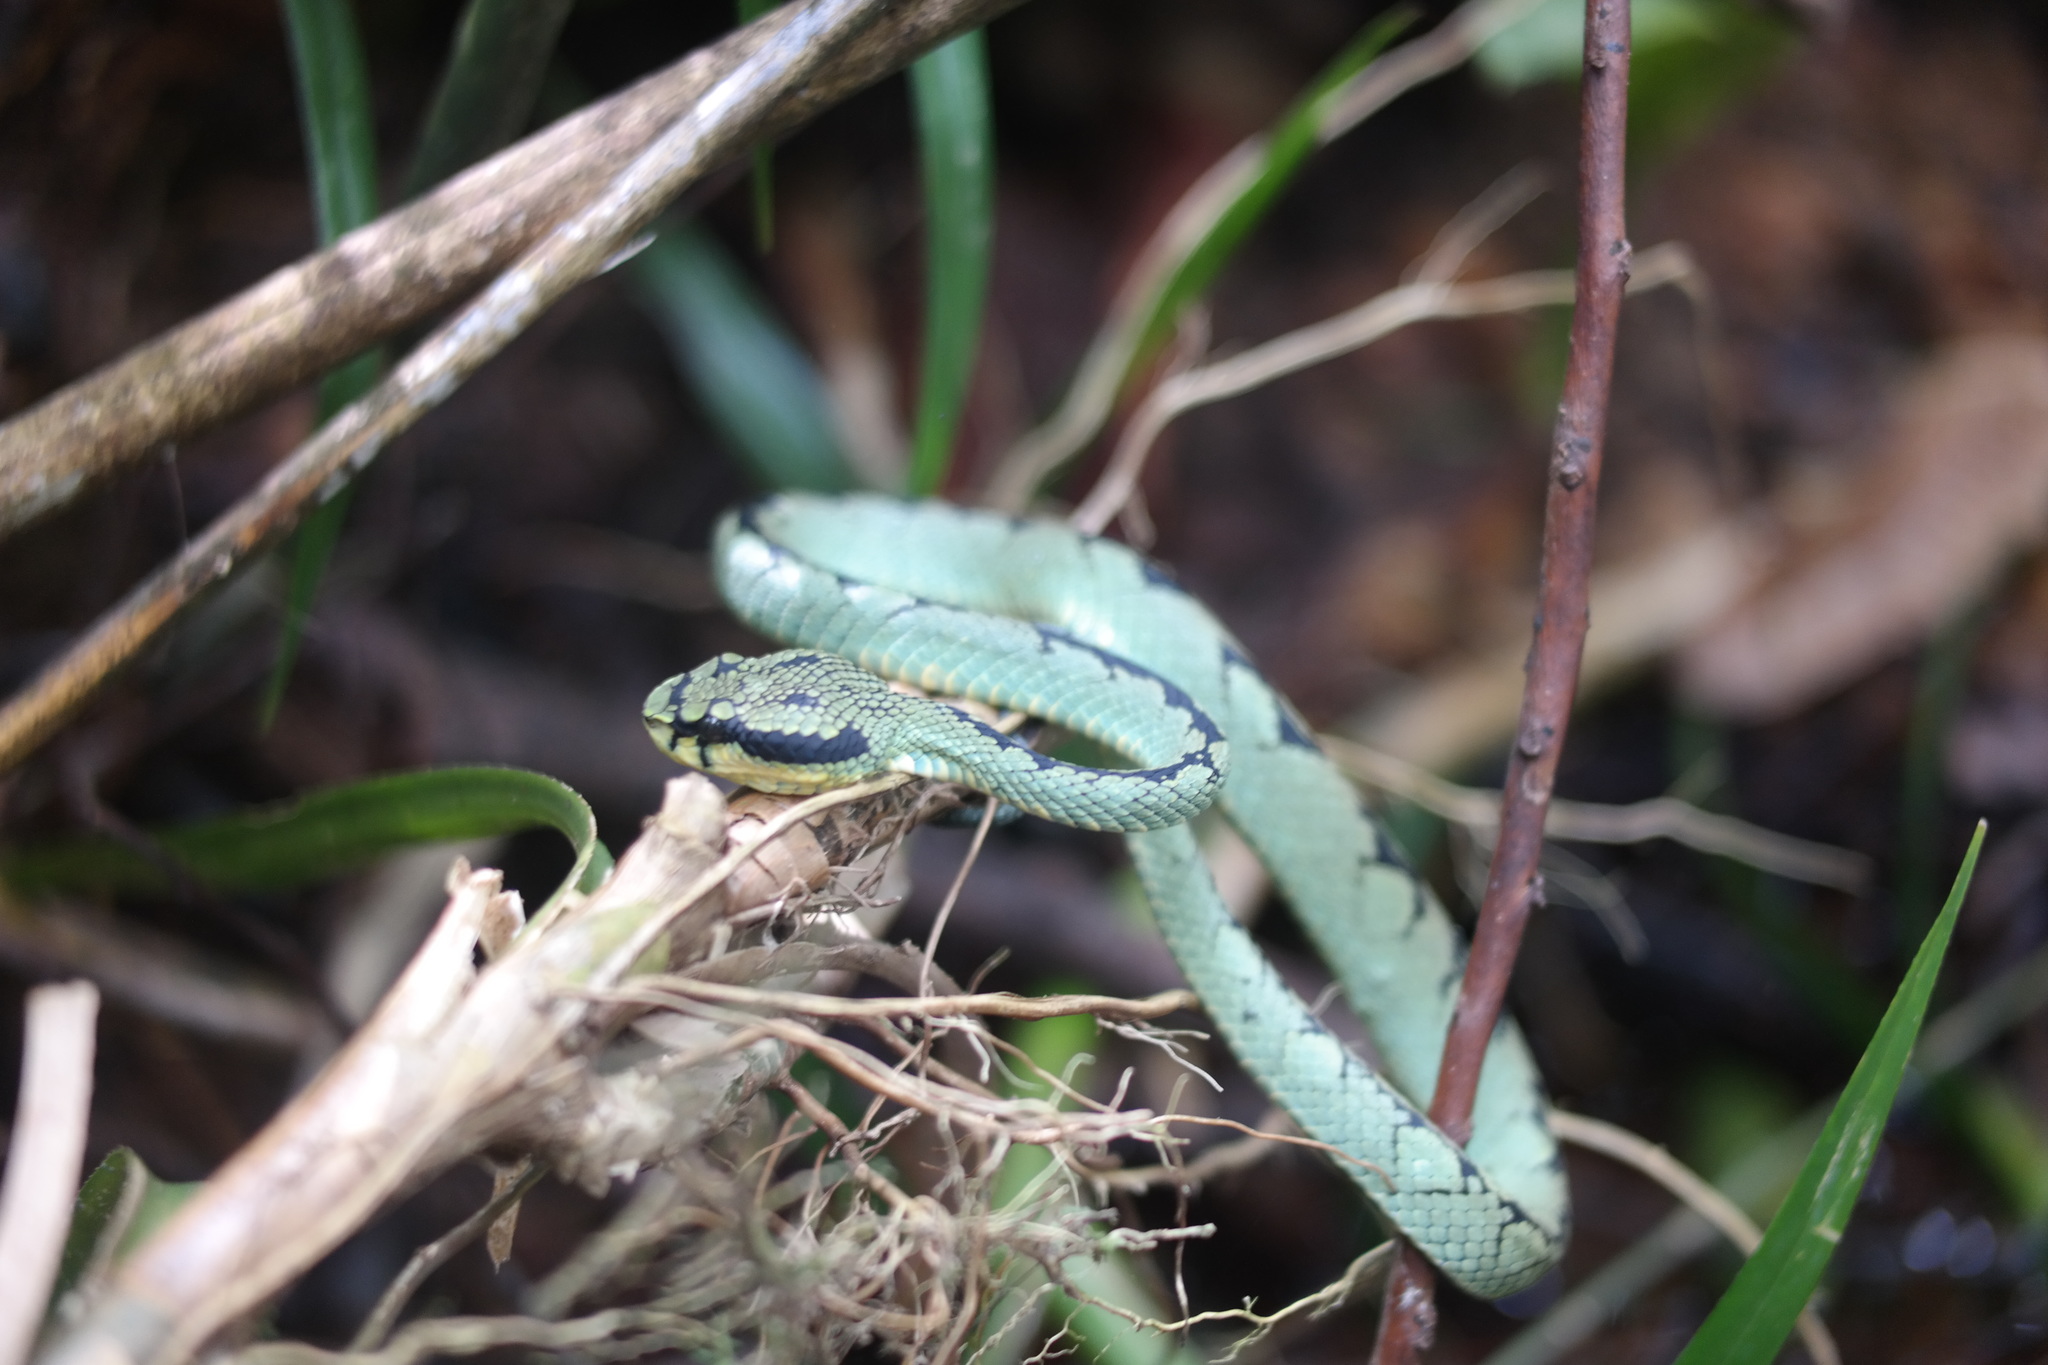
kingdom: Animalia
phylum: Chordata
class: Squamata
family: Viperidae
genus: Craspedocephalus
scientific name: Craspedocephalus trigonocephalus
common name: Ceylon pit viper
